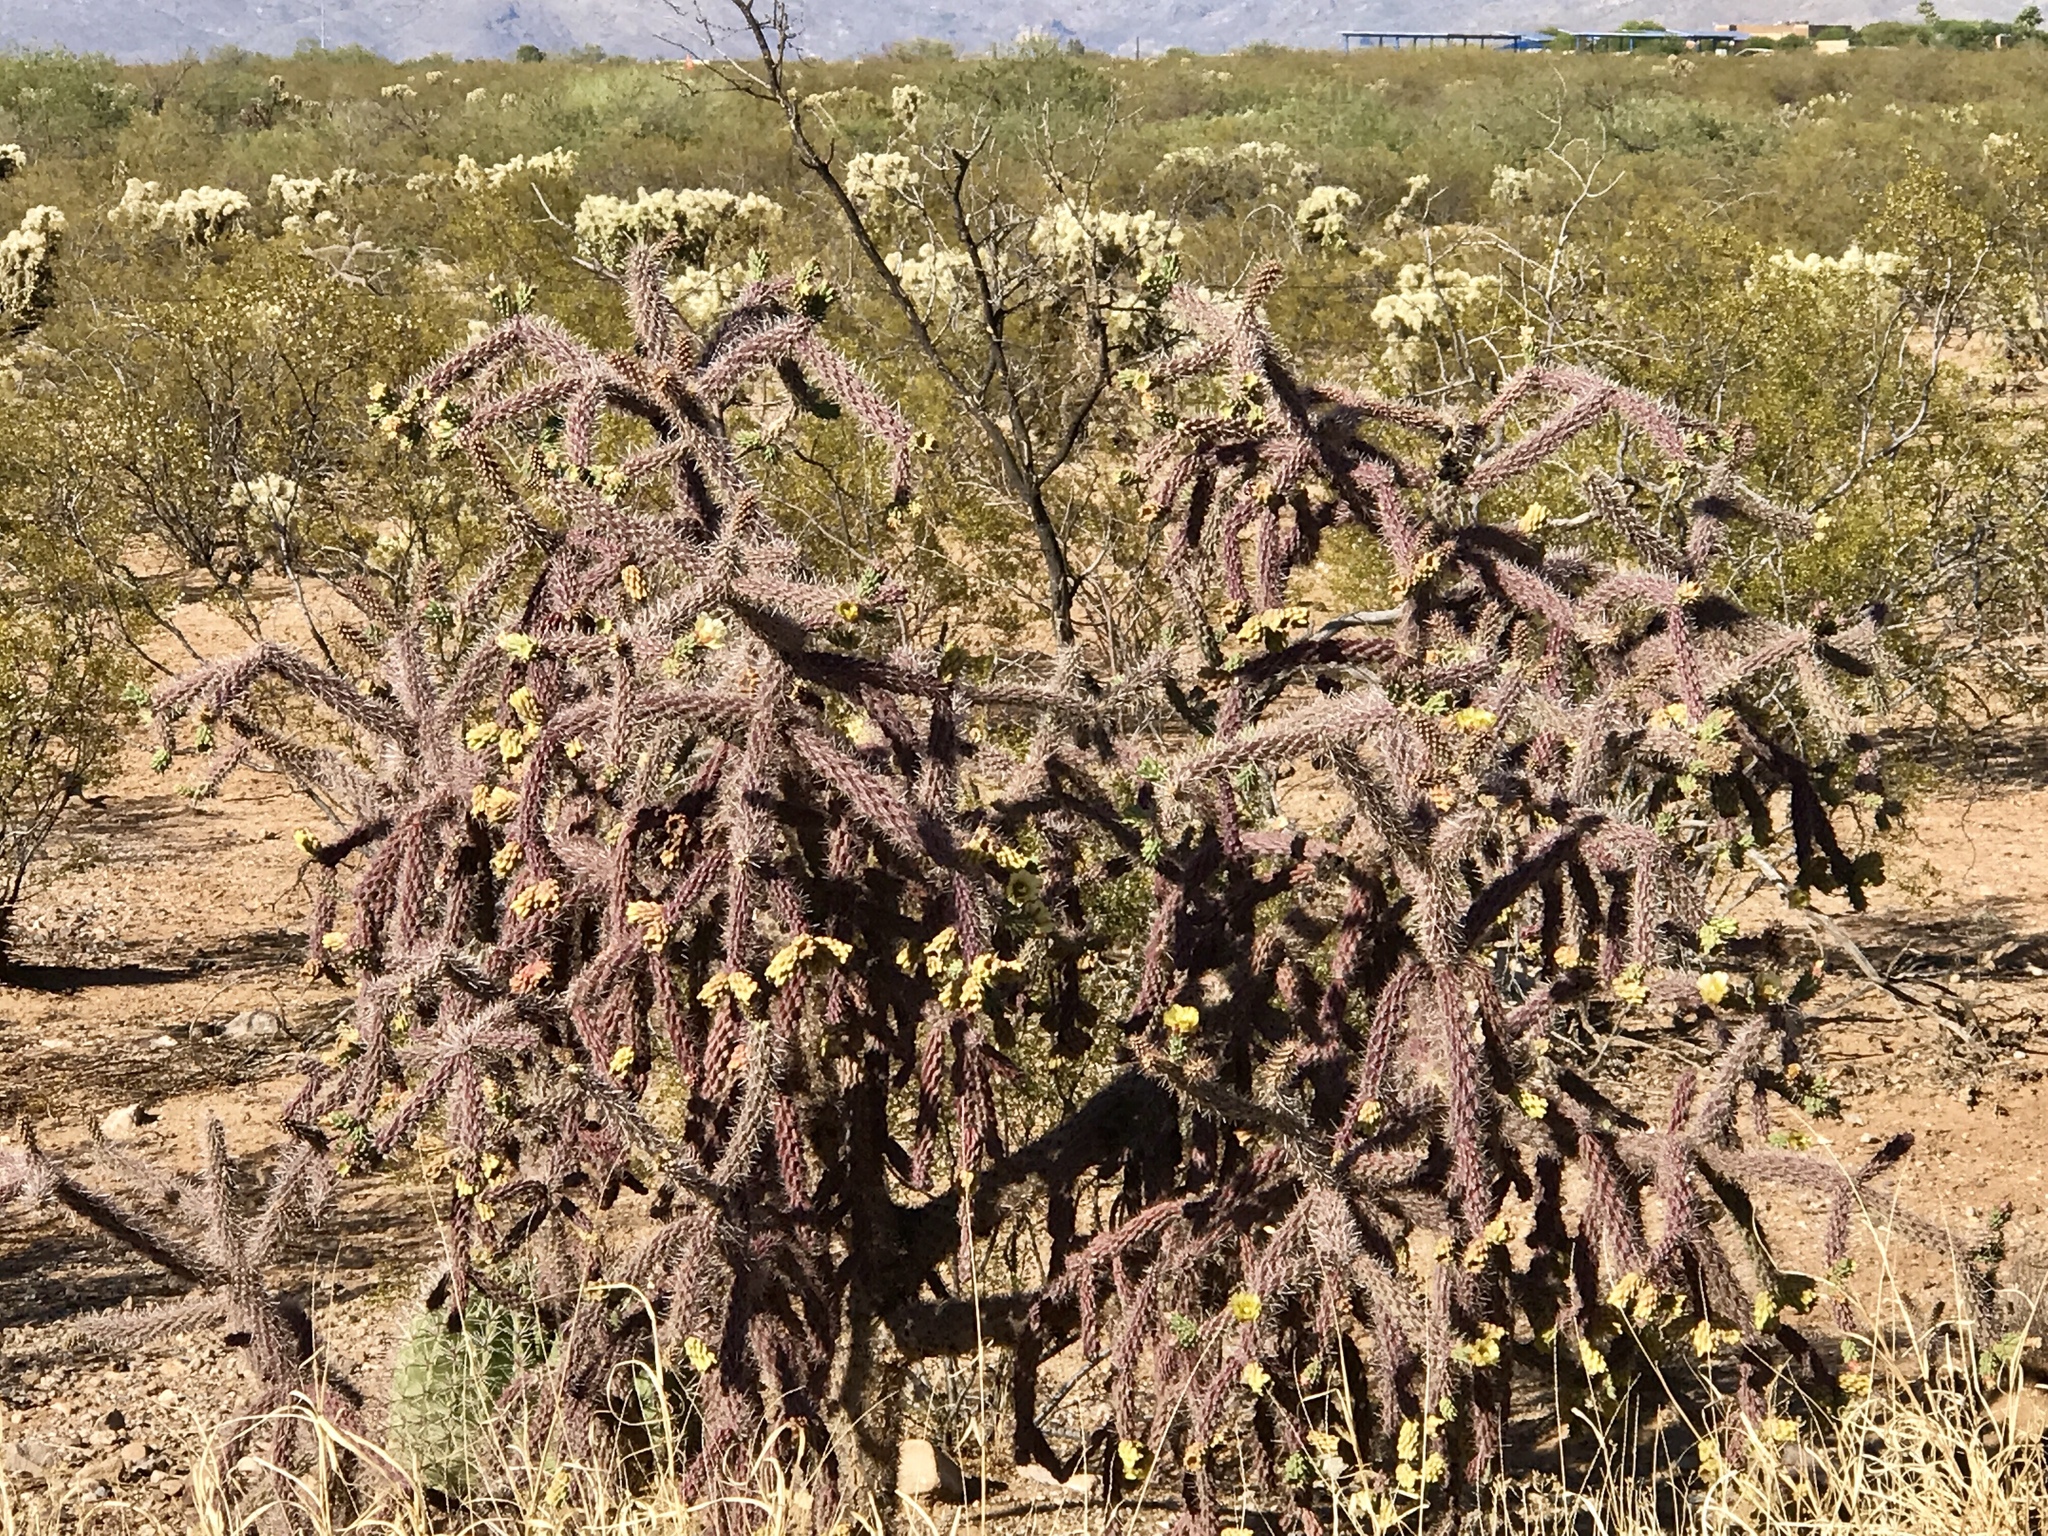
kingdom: Plantae
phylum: Tracheophyta
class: Magnoliopsida
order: Caryophyllales
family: Cactaceae
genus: Cylindropuntia
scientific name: Cylindropuntia imbricata
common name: Candelabrum cactus
